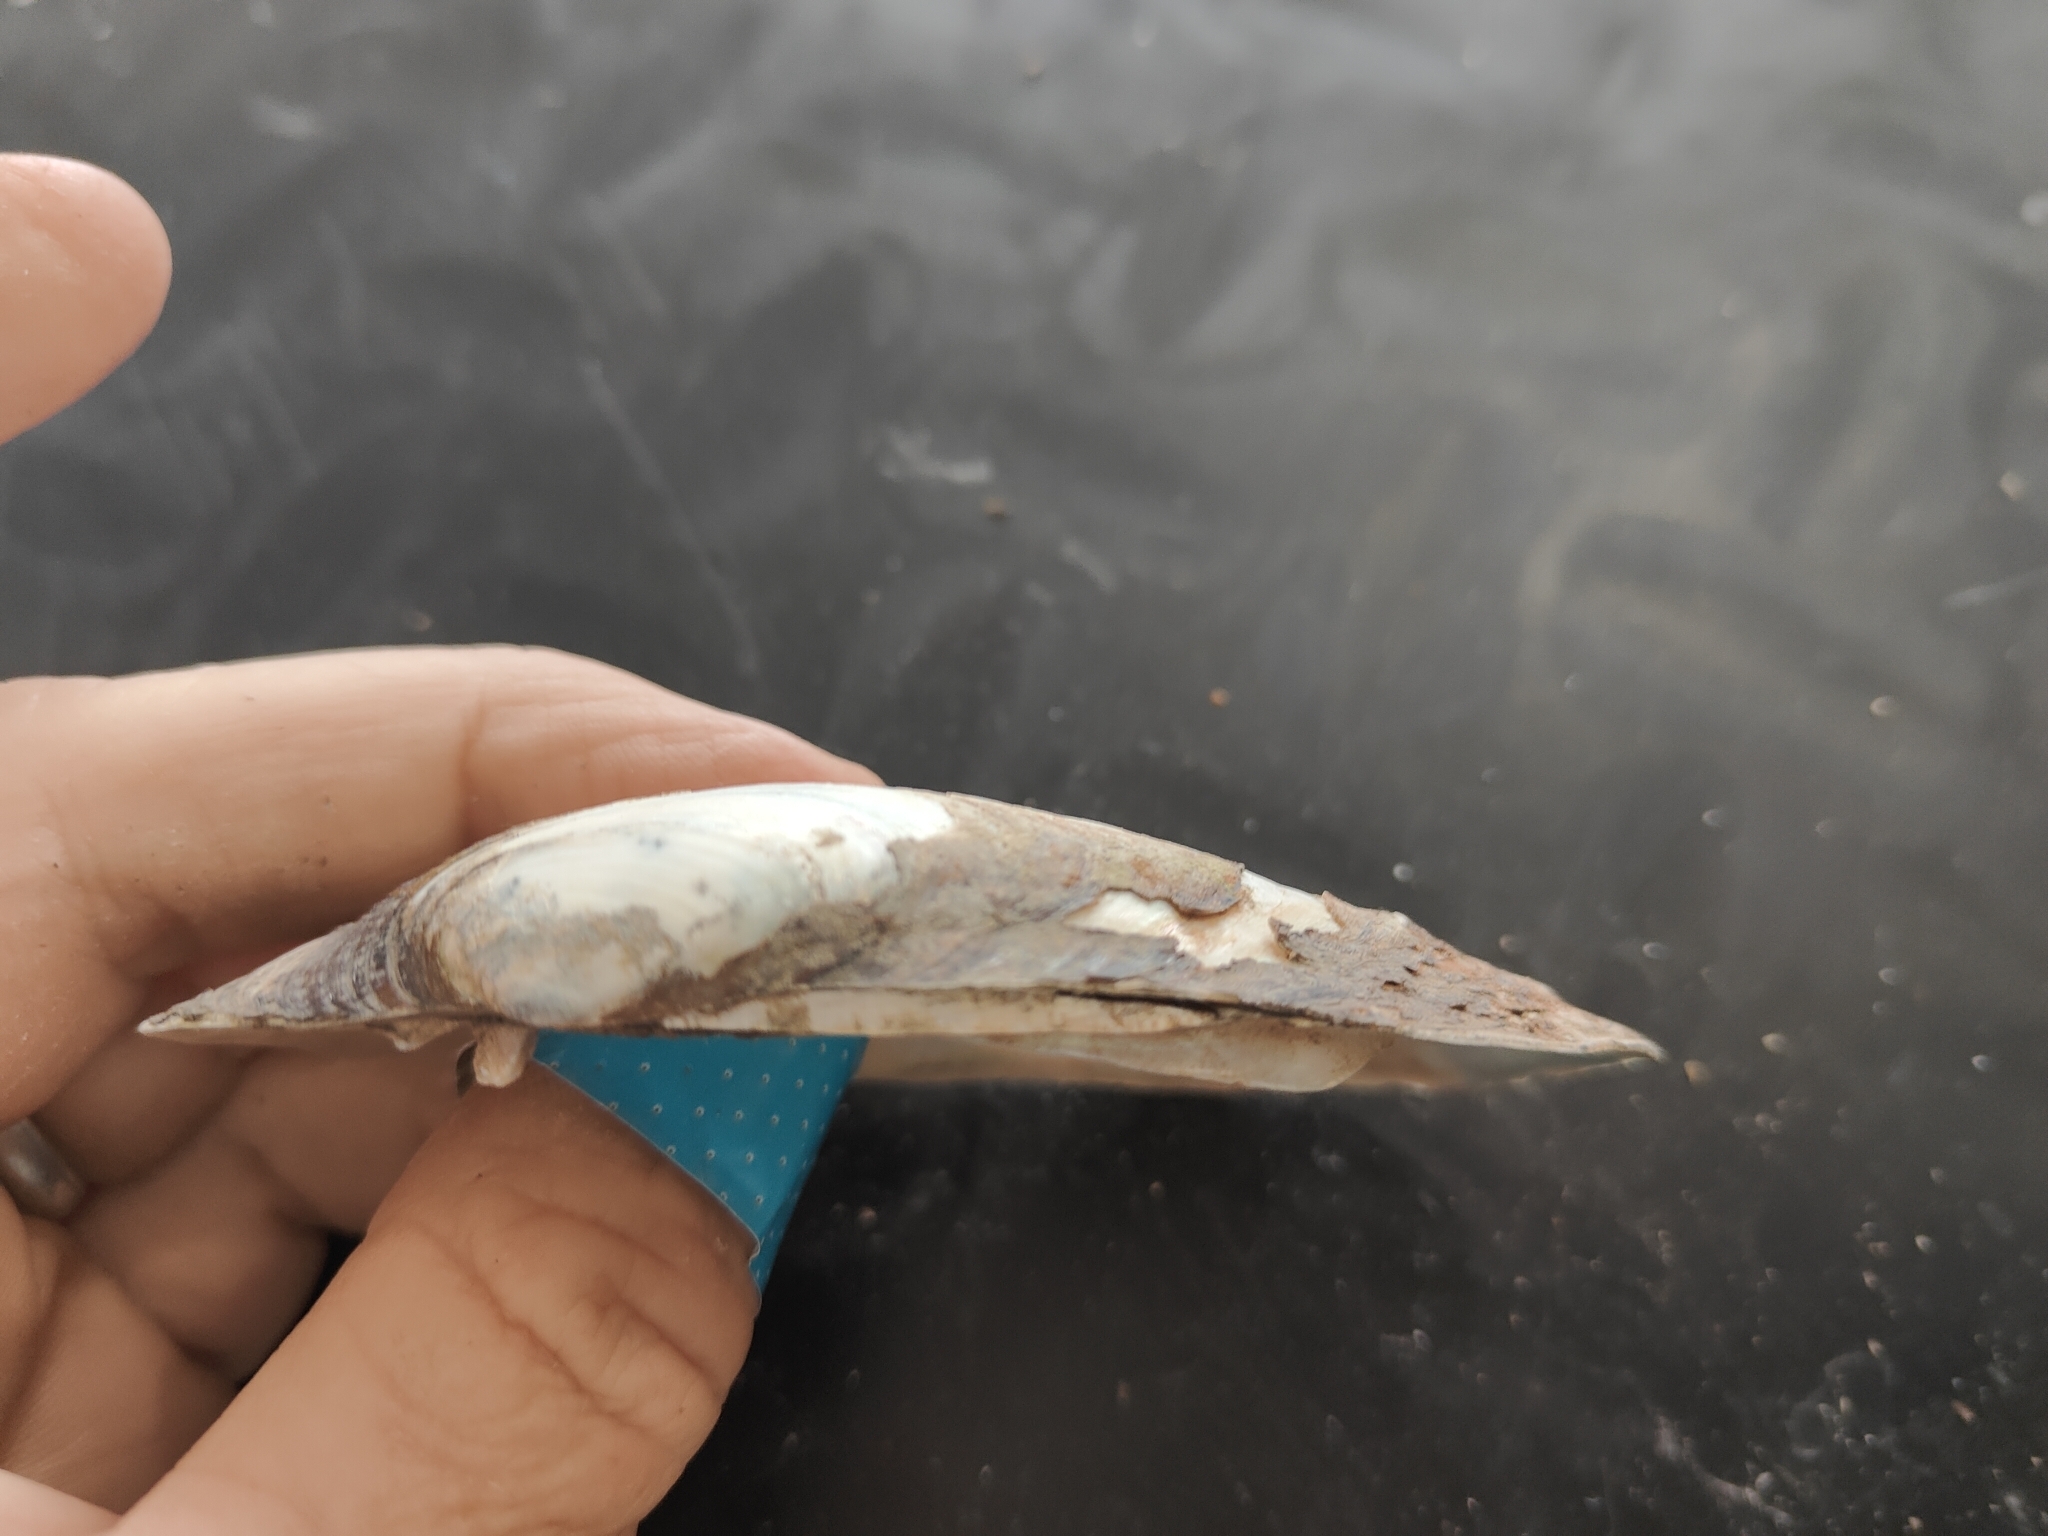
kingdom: Animalia
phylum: Mollusca
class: Bivalvia
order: Unionida
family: Unionidae
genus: Lampsilis
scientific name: Lampsilis siliquoidea
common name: Fatmucket
